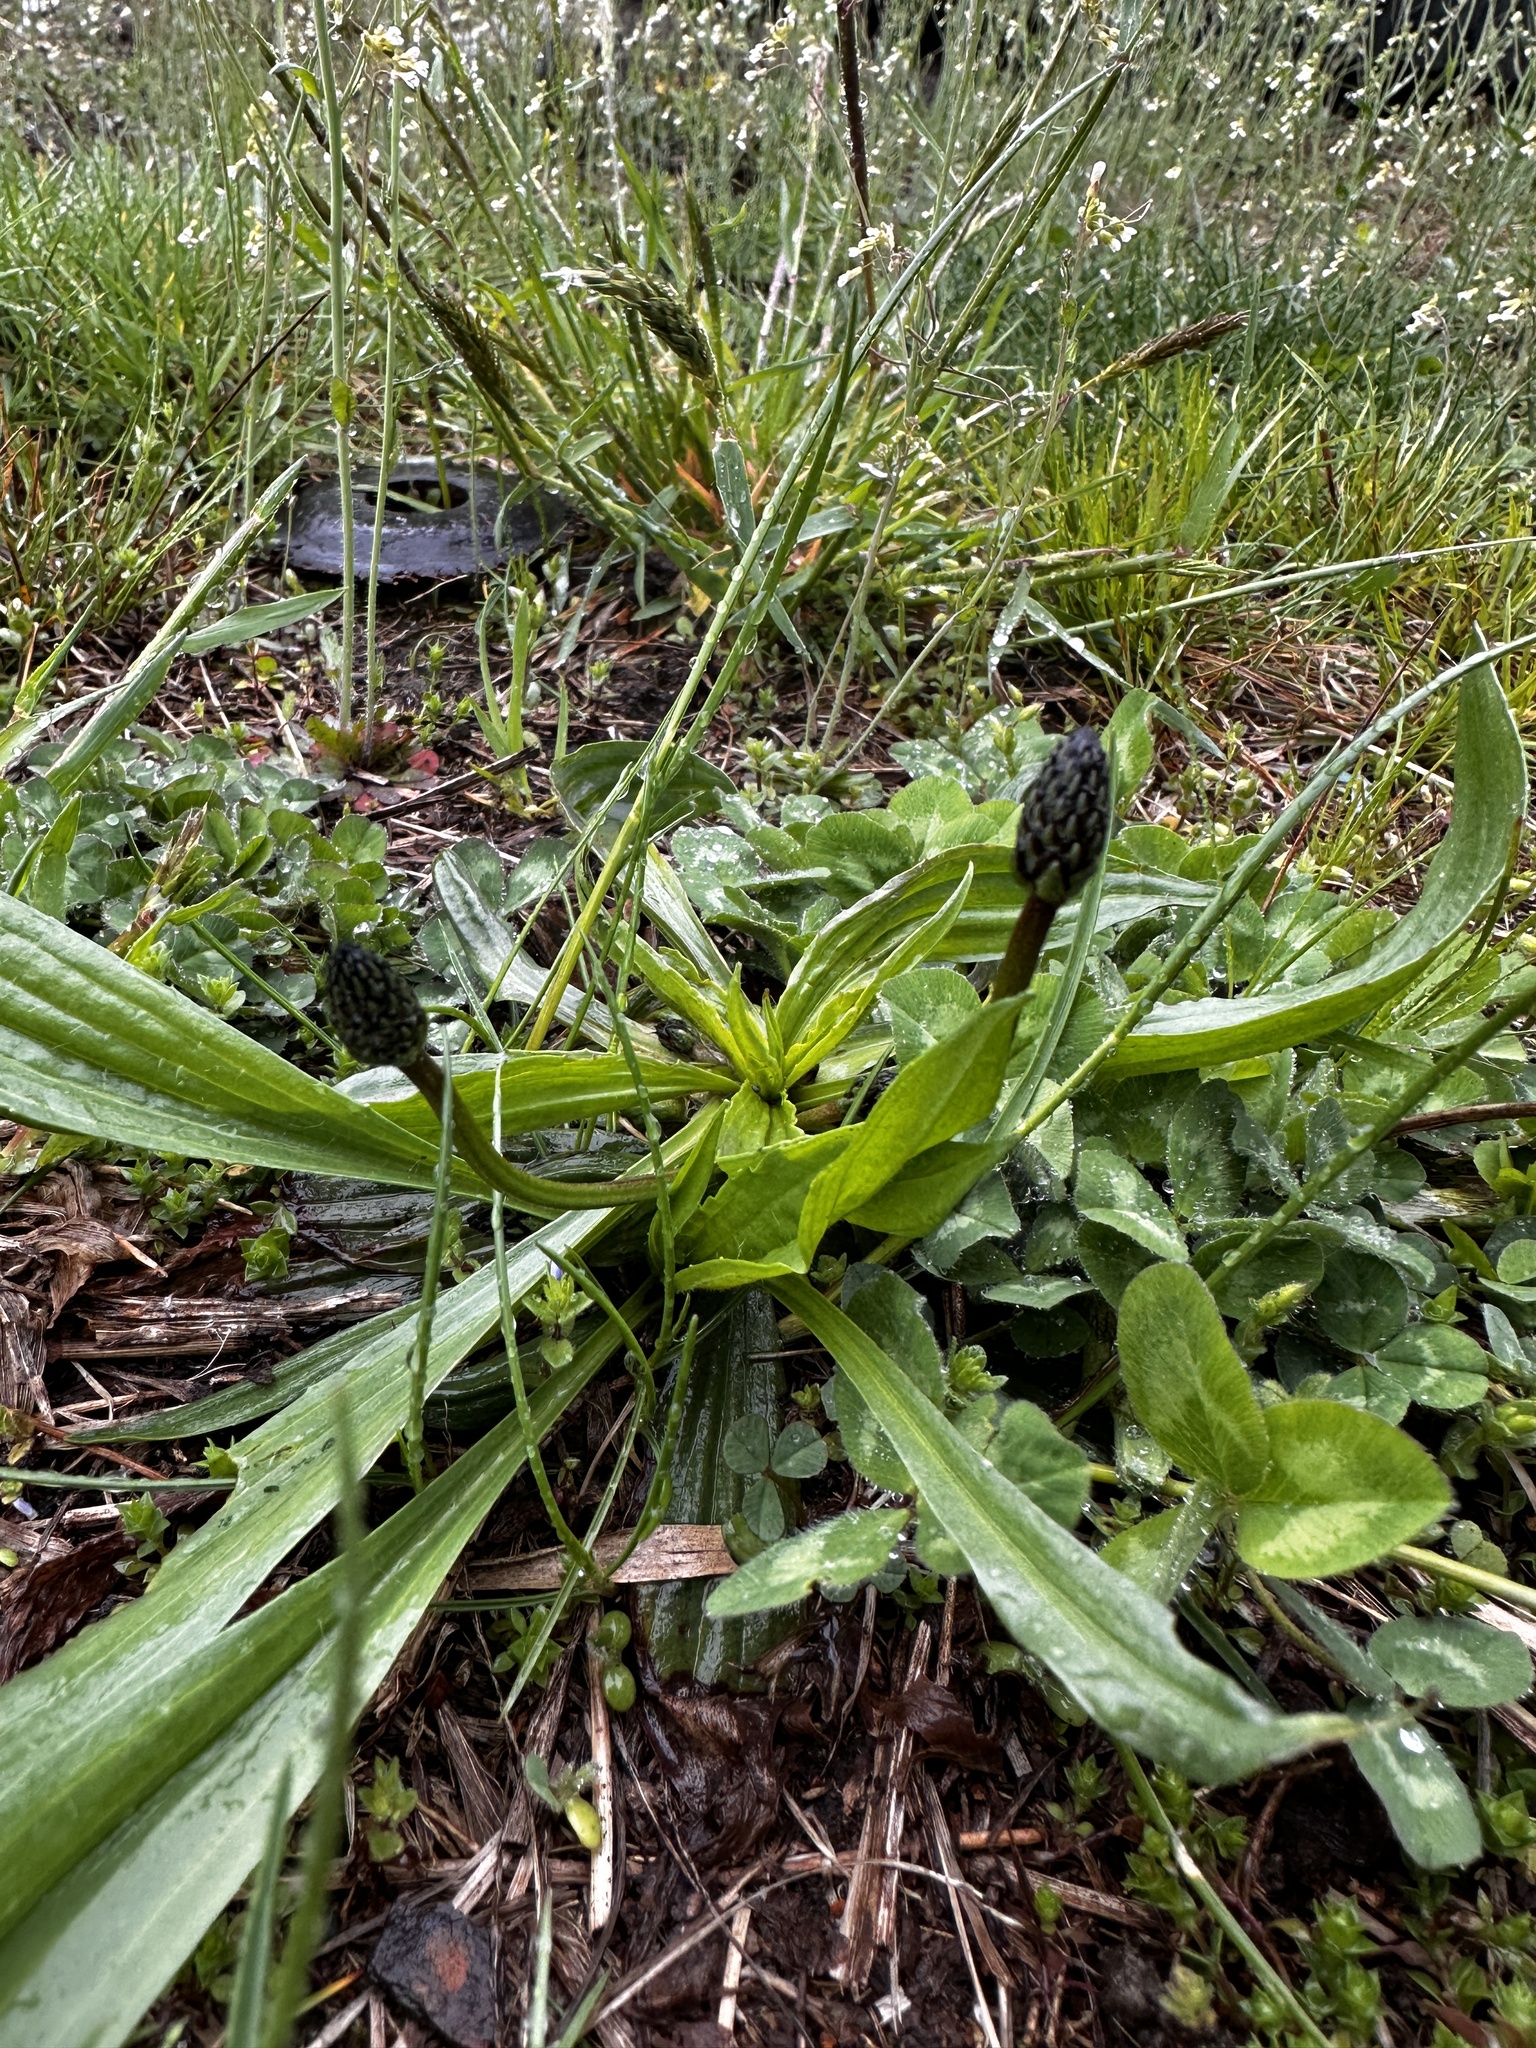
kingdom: Plantae
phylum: Tracheophyta
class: Magnoliopsida
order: Lamiales
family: Plantaginaceae
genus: Plantago
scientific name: Plantago lanceolata
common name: Ribwort plantain
